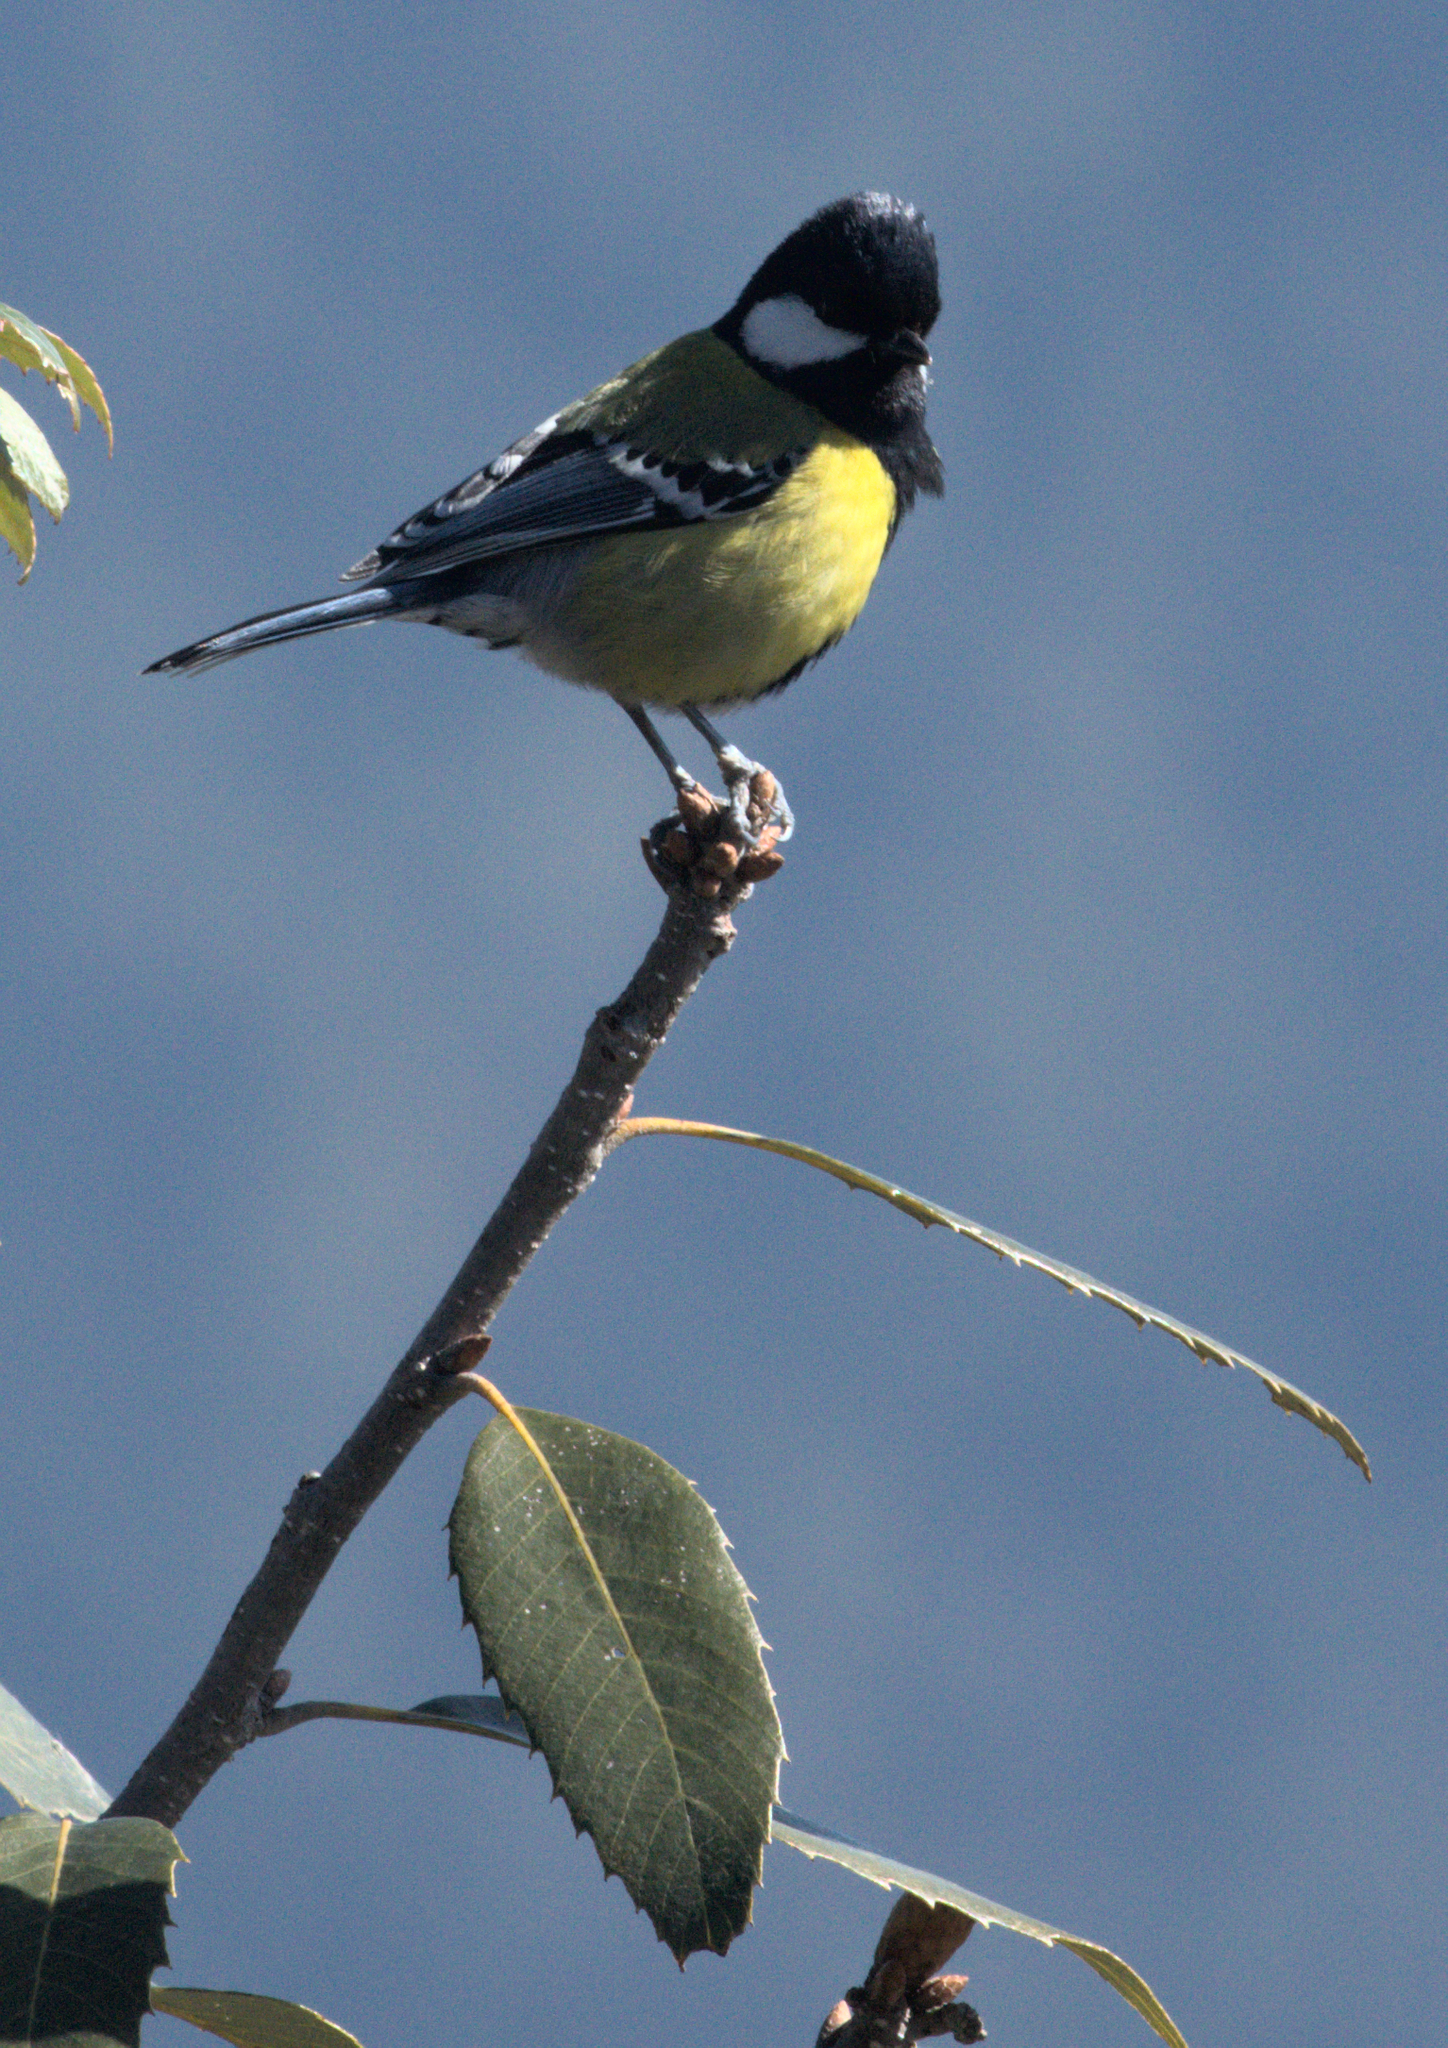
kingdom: Animalia
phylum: Chordata
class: Aves
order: Passeriformes
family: Paridae
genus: Parus
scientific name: Parus monticolus
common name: Green-backed tit
